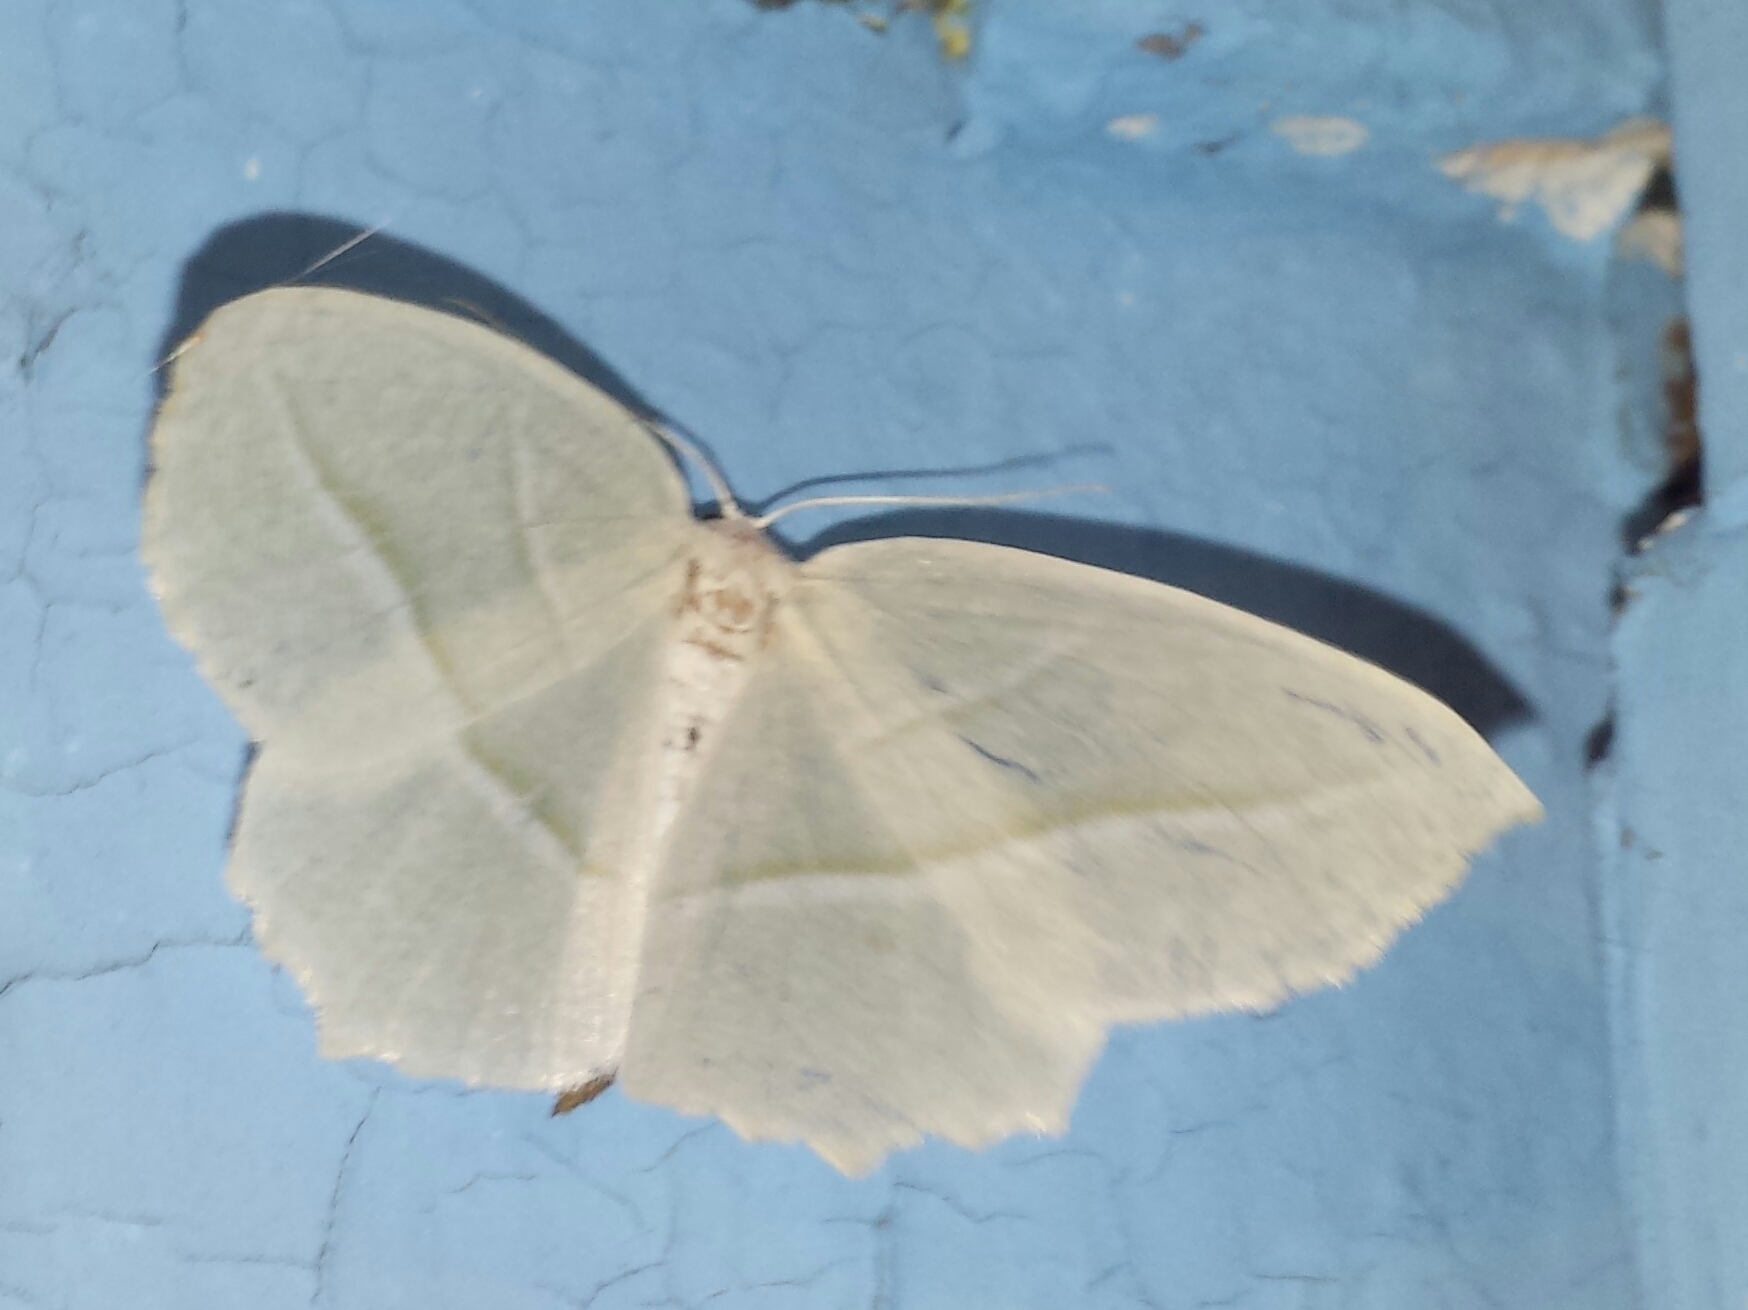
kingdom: Animalia
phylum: Arthropoda
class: Insecta
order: Lepidoptera
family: Geometridae
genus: Campaea
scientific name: Campaea perlata
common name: Fringed looper
